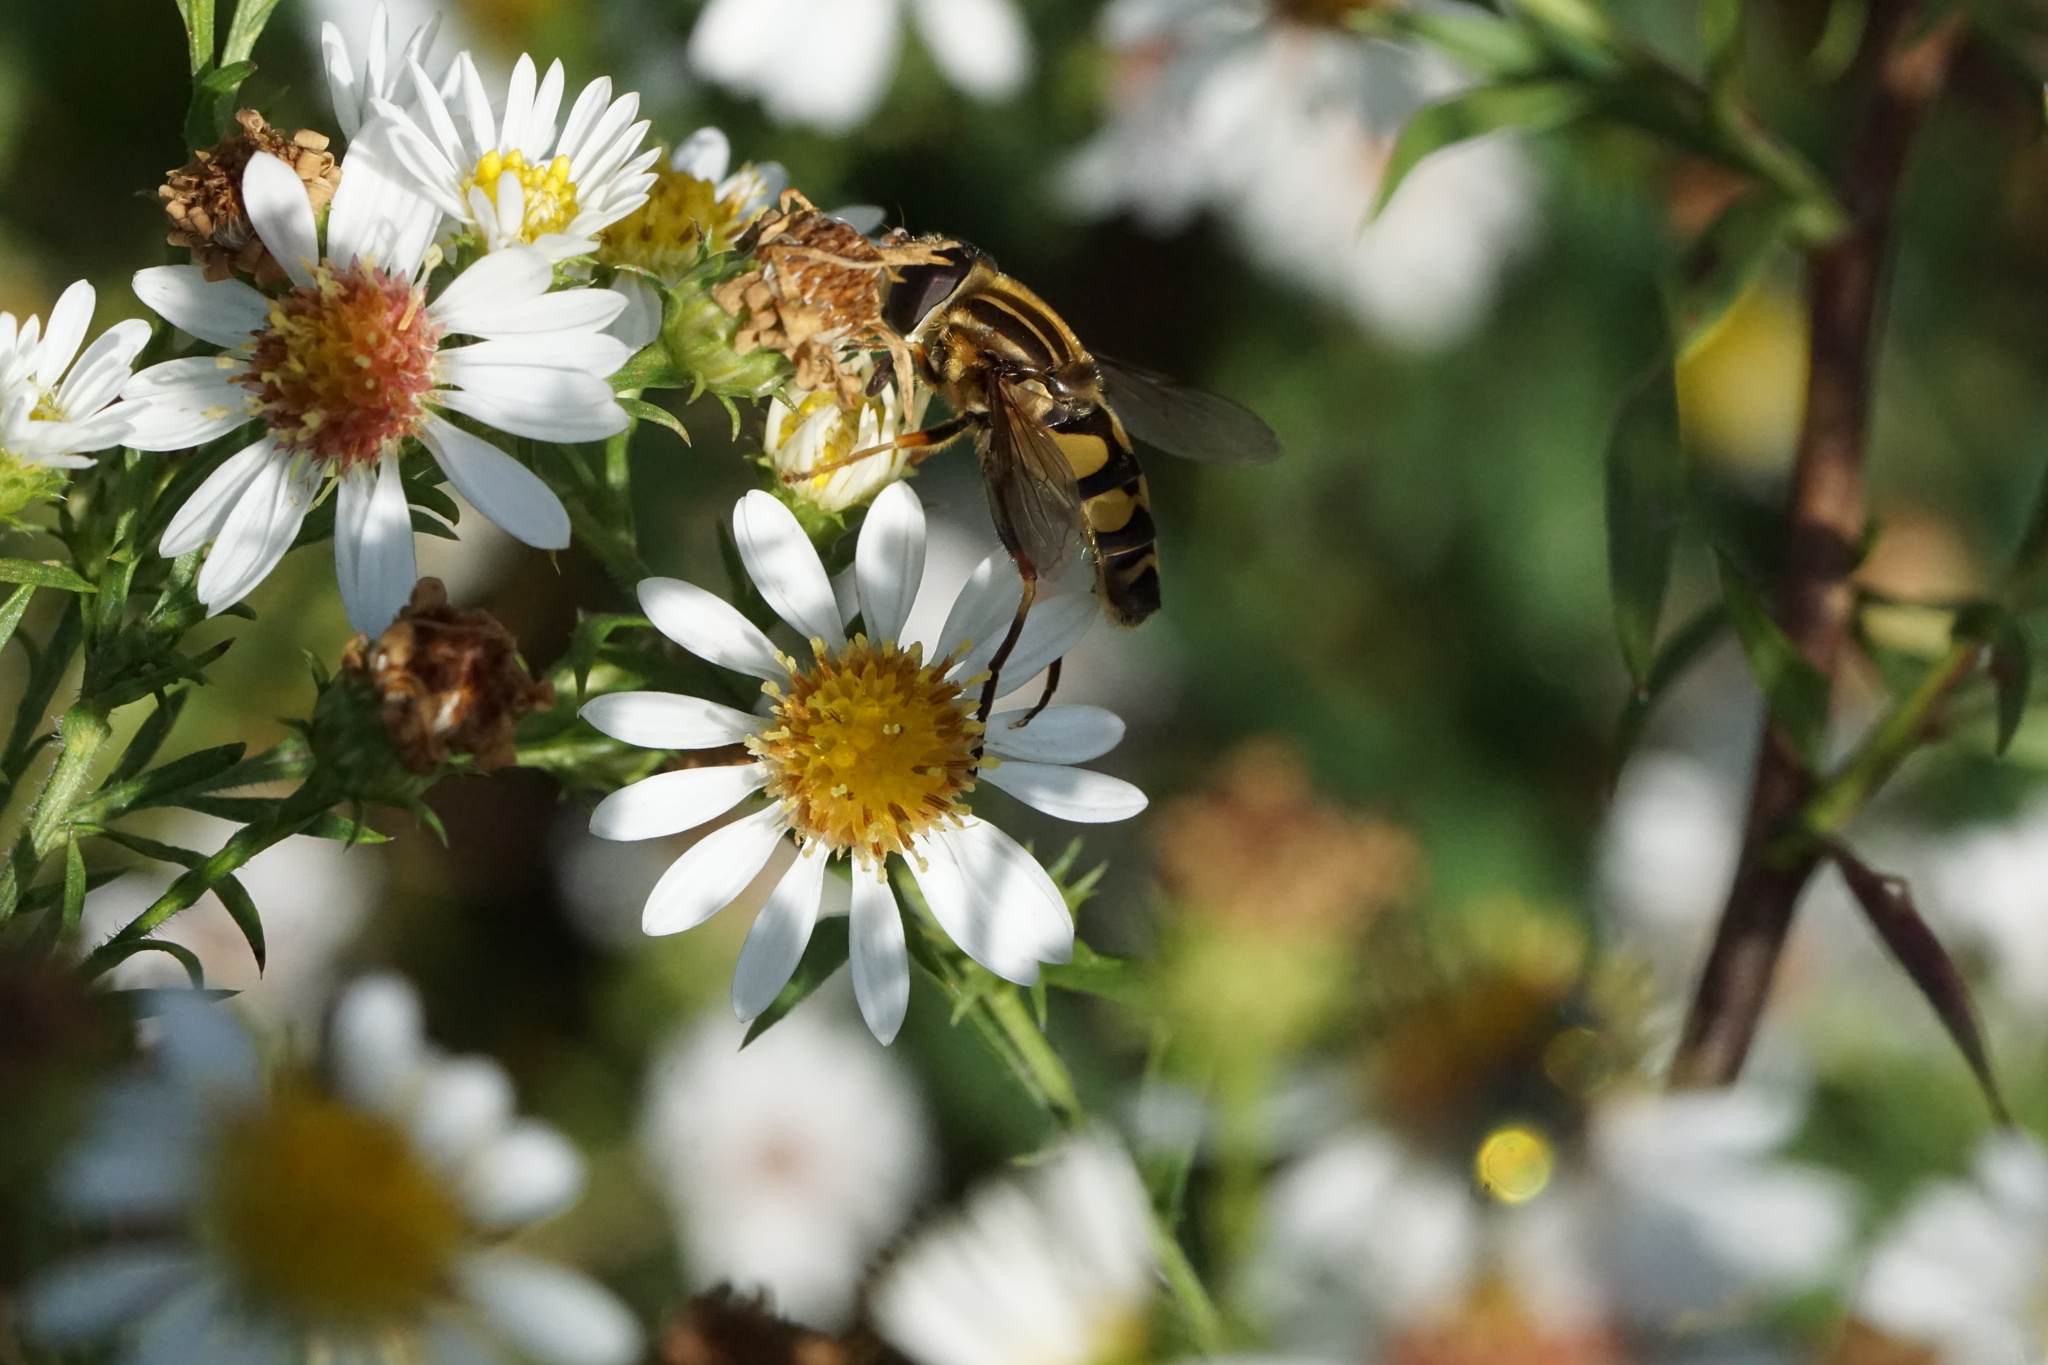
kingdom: Animalia
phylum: Arthropoda
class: Insecta
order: Diptera
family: Syrphidae
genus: Helophilus
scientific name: Helophilus fasciatus
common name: Narrow-headed marsh fly
